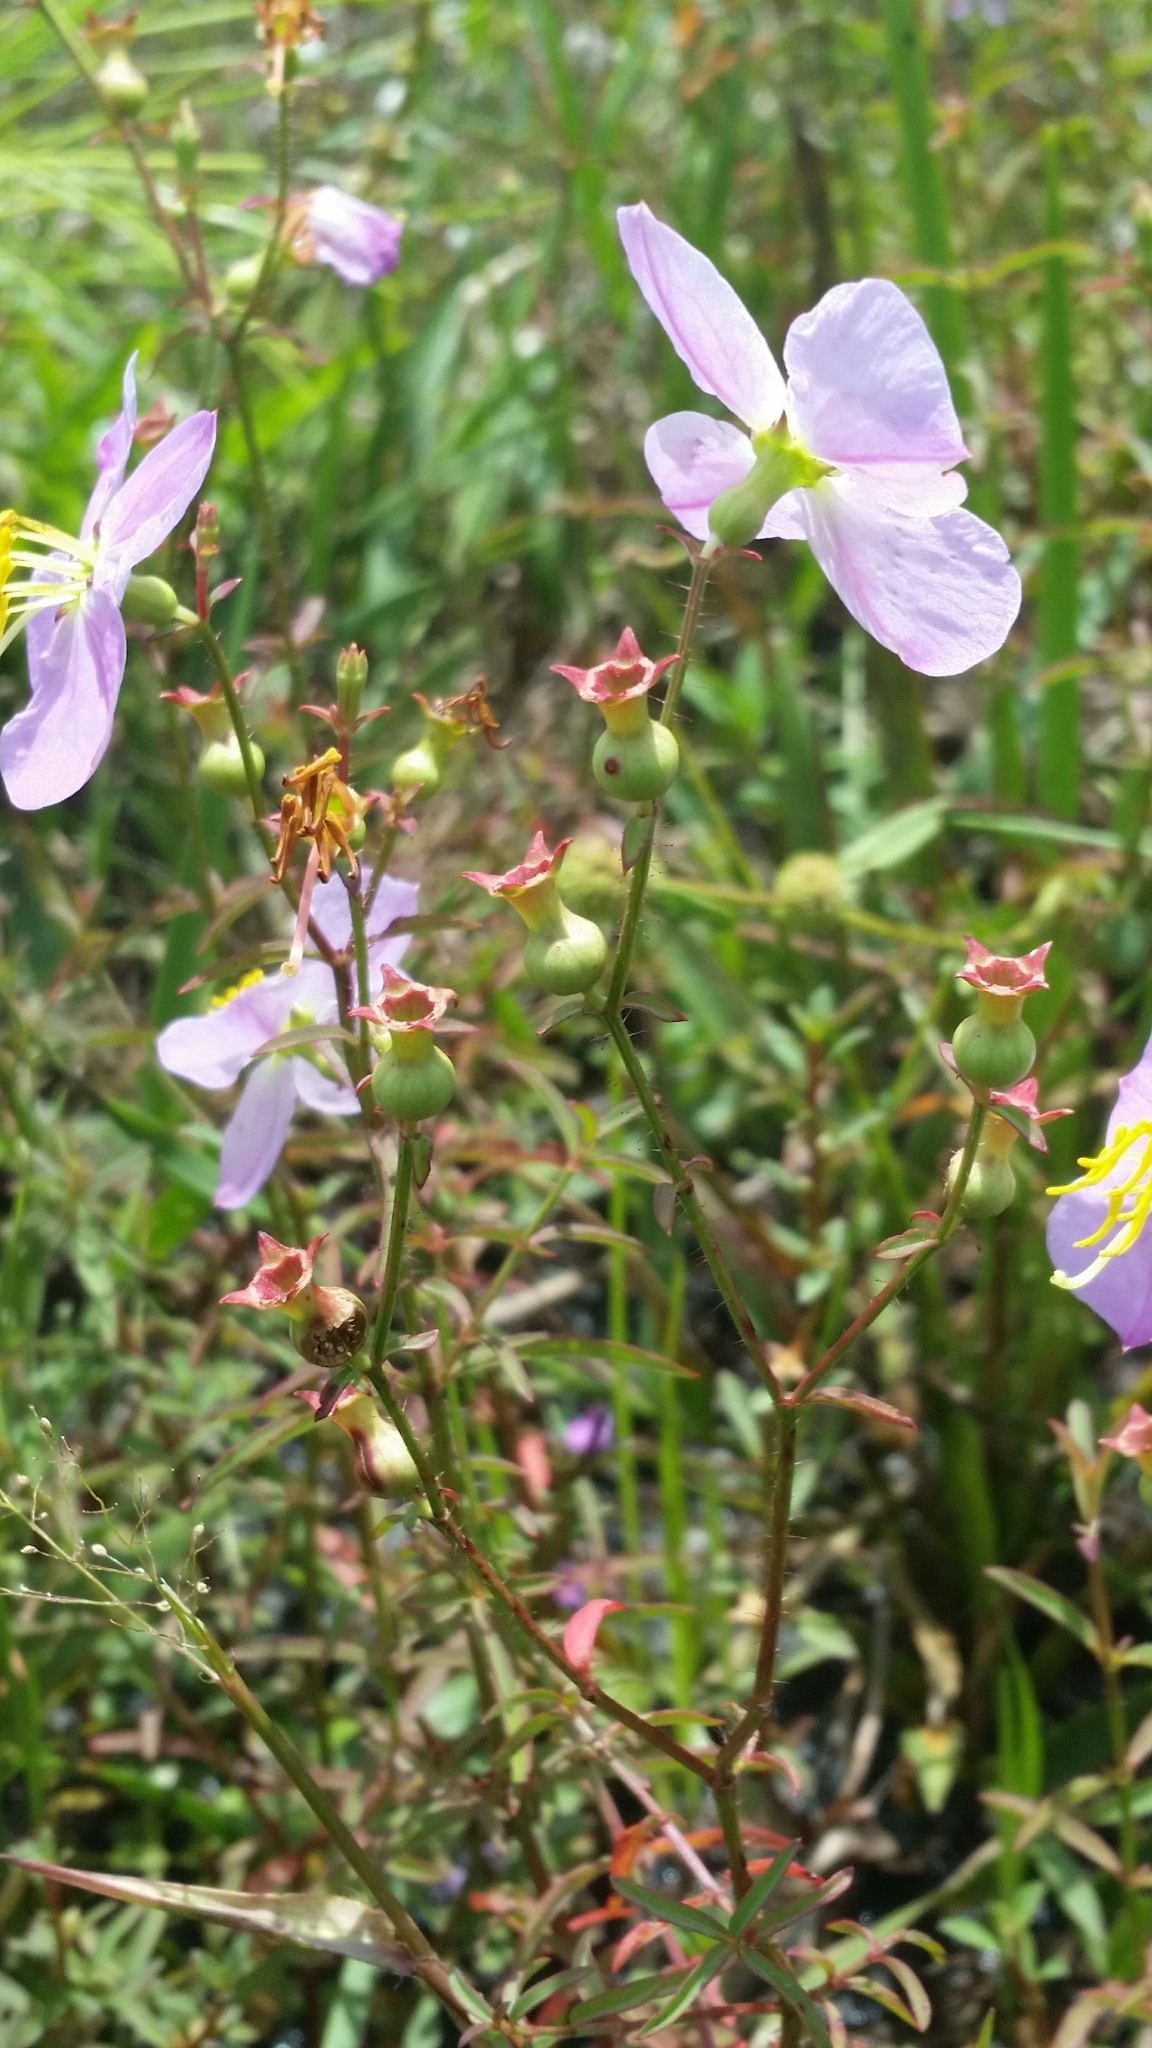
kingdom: Plantae
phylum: Tracheophyta
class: Magnoliopsida
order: Myrtales
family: Melastomataceae
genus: Rhexia
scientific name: Rhexia mariana
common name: Dull meadow-pitcher
